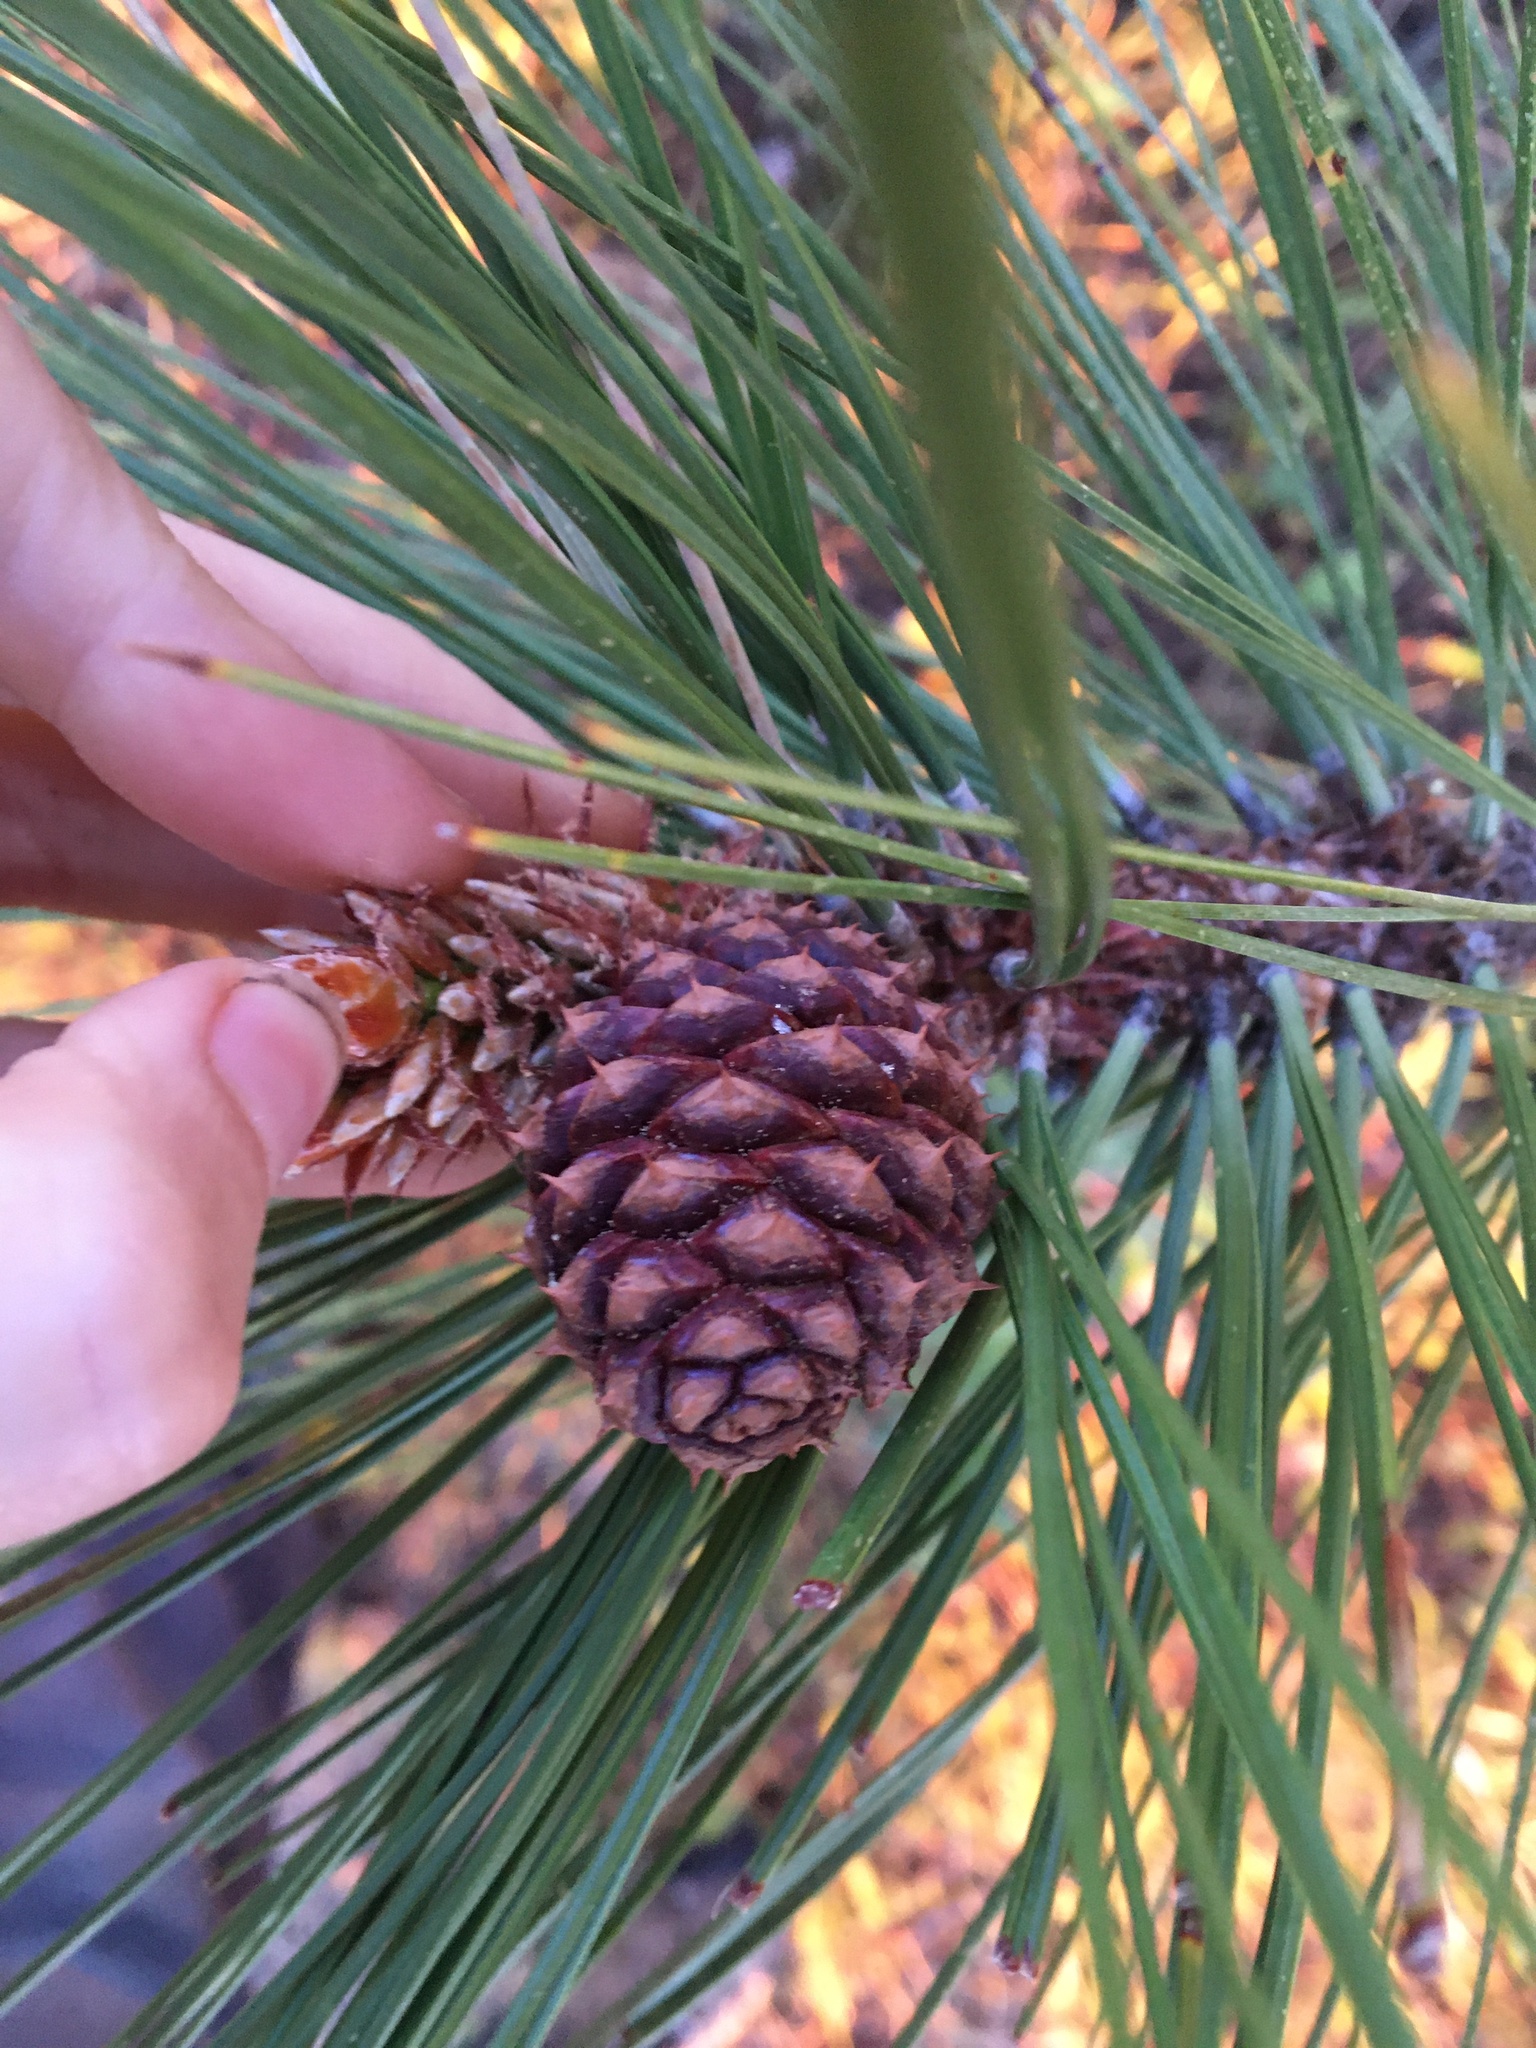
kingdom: Plantae
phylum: Tracheophyta
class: Pinopsida
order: Pinales
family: Pinaceae
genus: Pinus
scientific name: Pinus ponderosa
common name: Western yellow-pine
